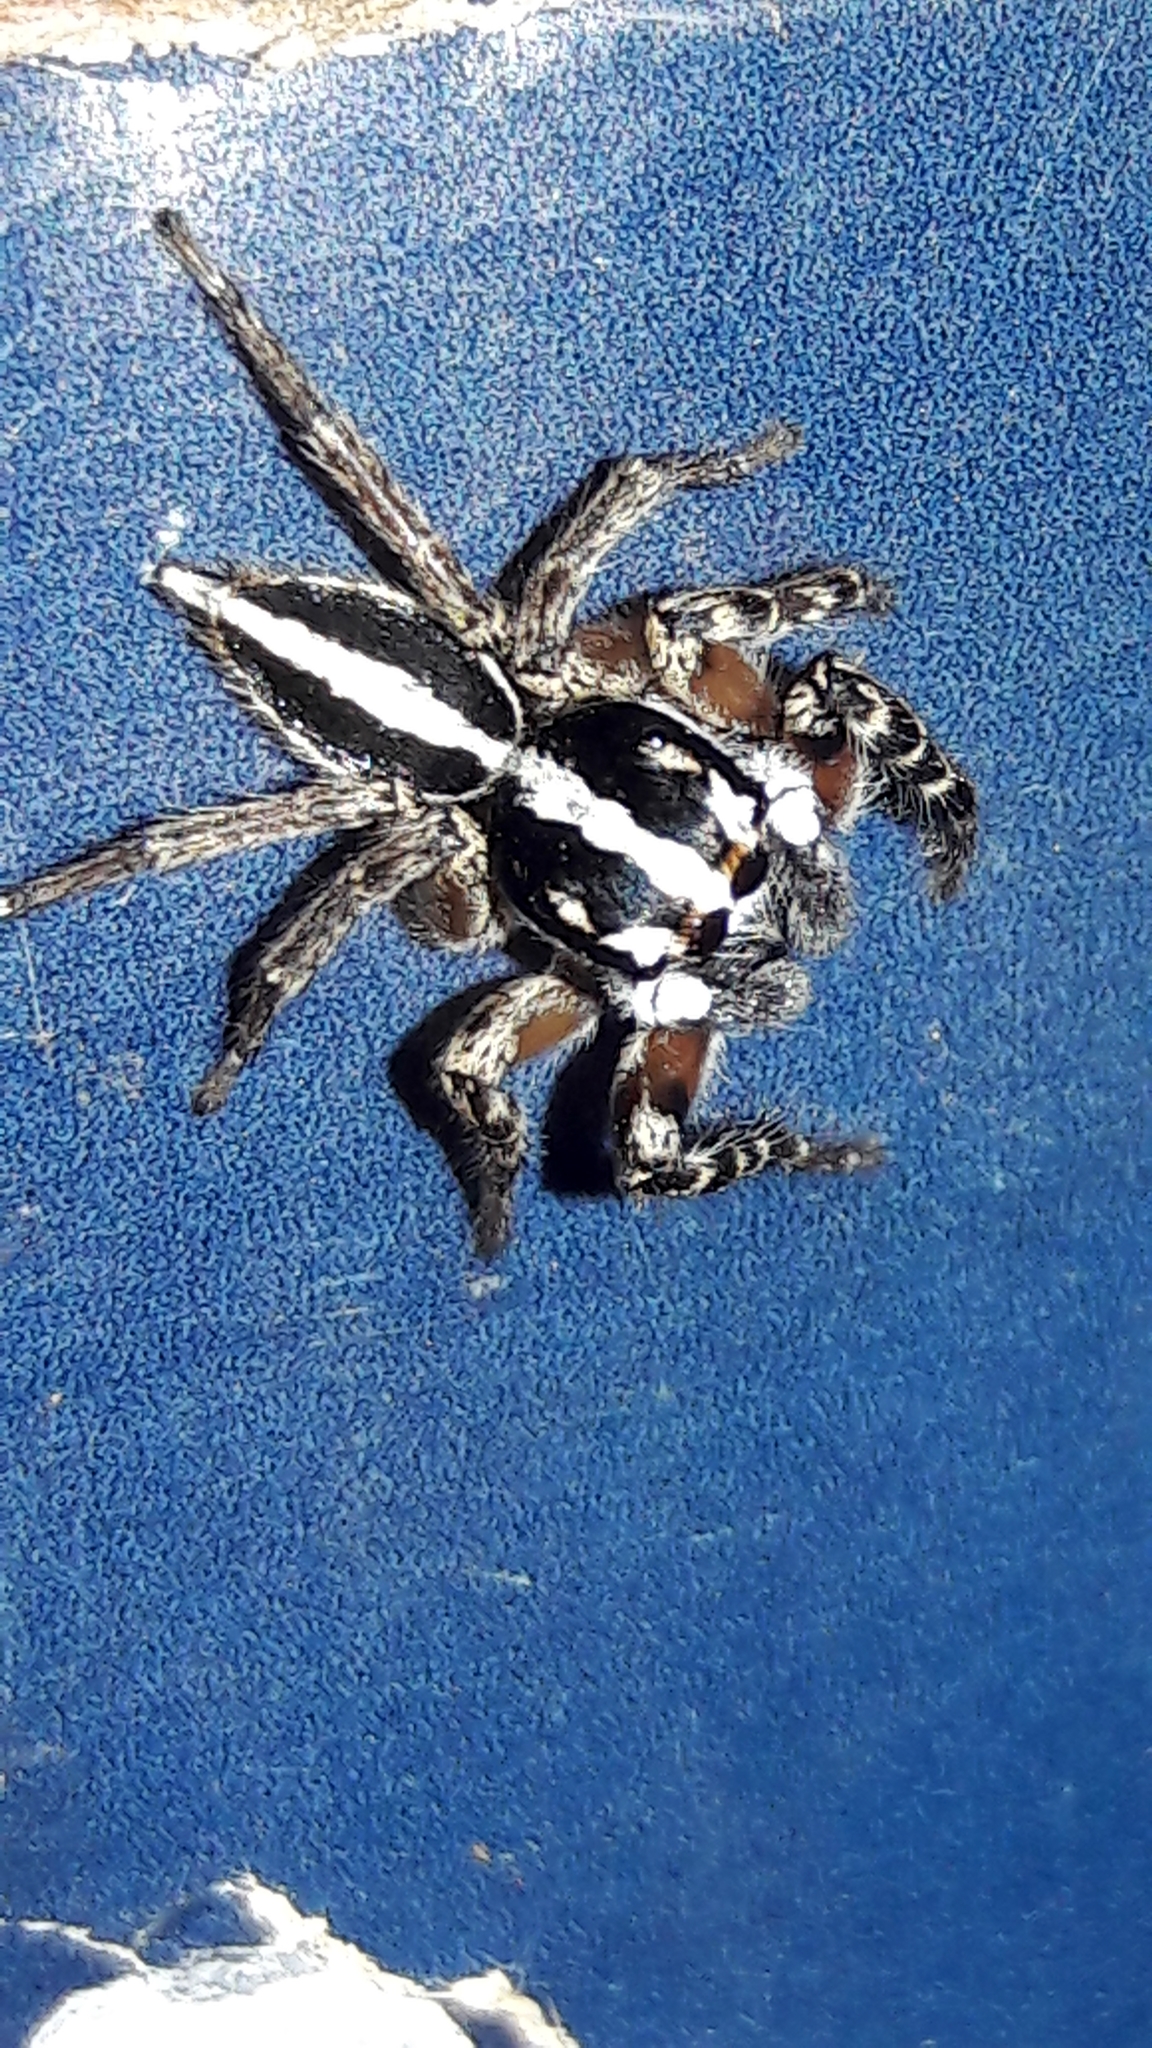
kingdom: Animalia
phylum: Arthropoda
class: Arachnida
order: Araneae
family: Salticidae
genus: Freya
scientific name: Freya nigrotaeniata
